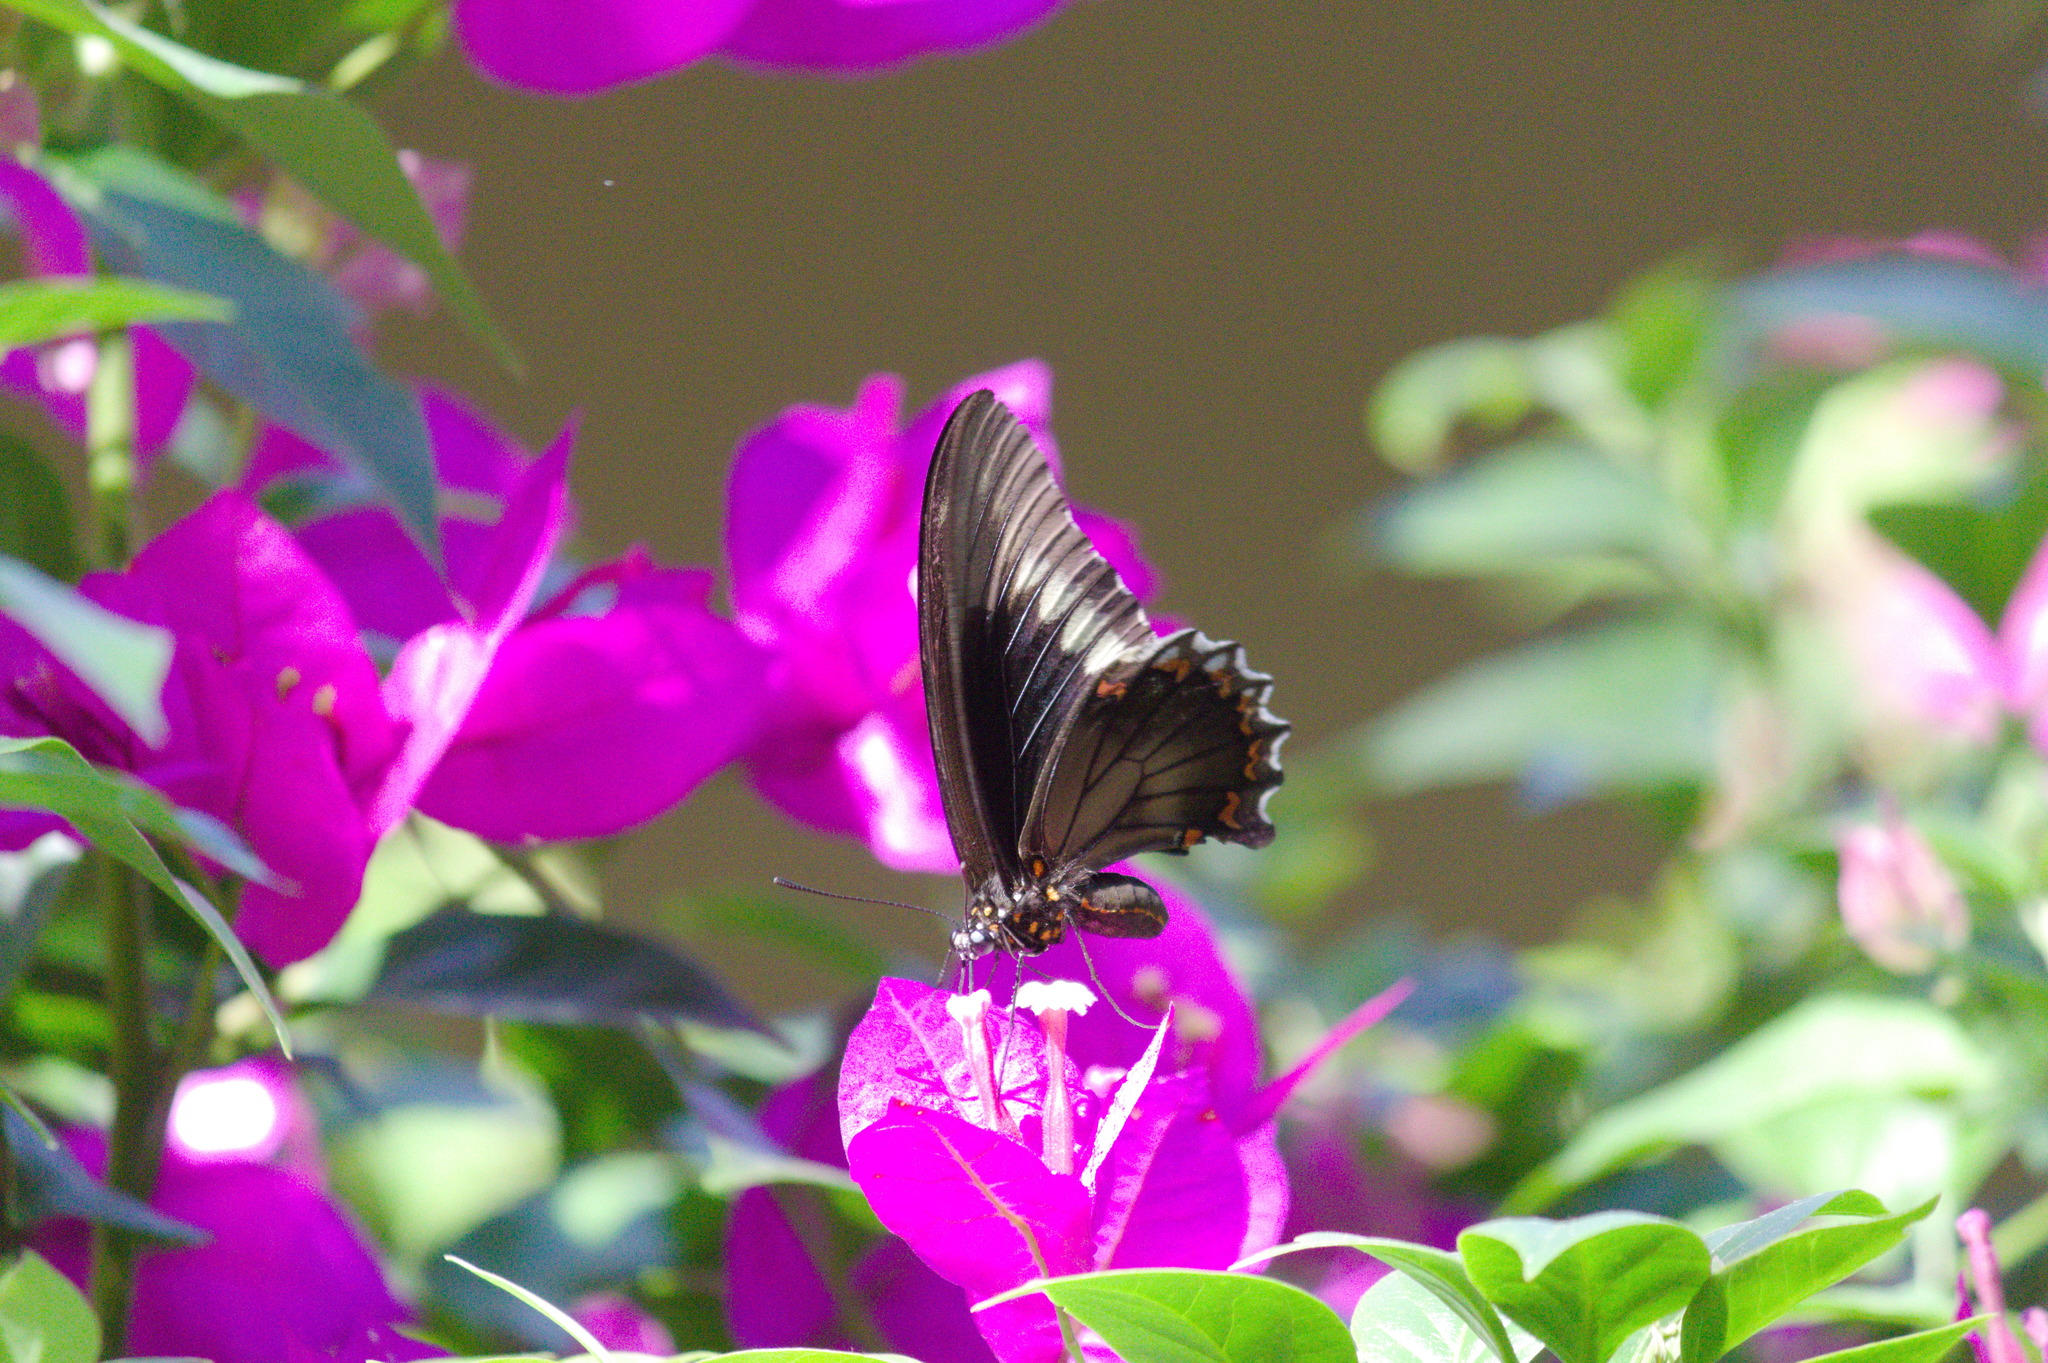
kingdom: Animalia
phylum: Arthropoda
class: Insecta
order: Lepidoptera
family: Papilionidae
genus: Battus
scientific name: Battus polydamas
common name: Polydamas swallowtail
